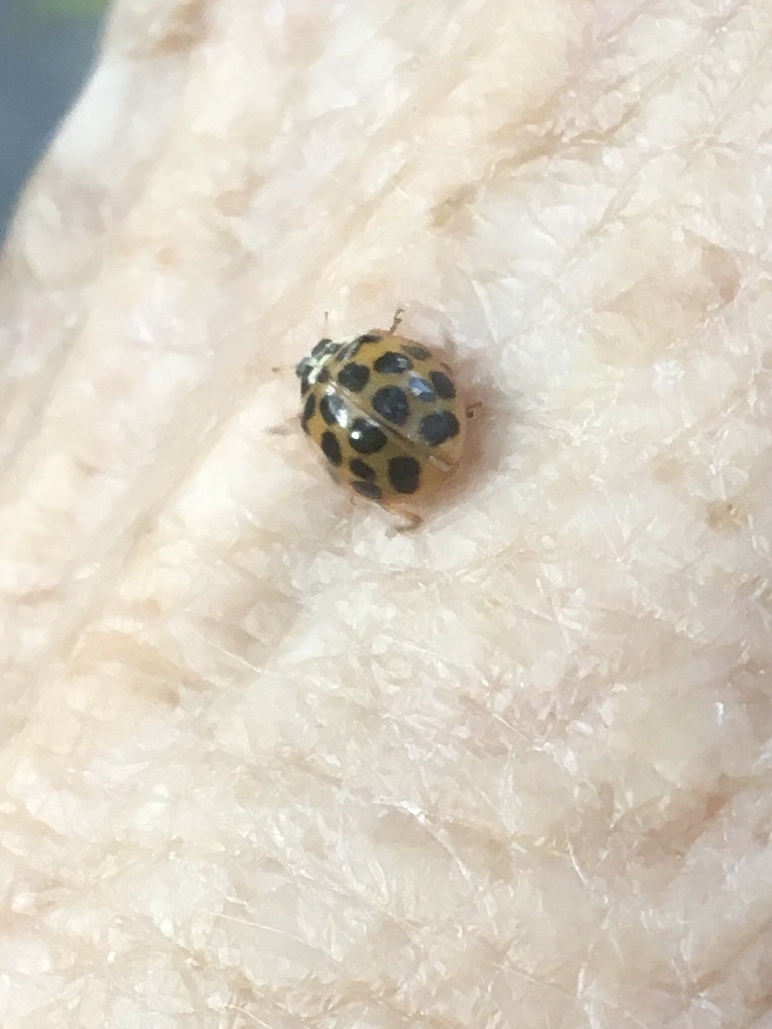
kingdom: Animalia
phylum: Arthropoda
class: Insecta
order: Coleoptera
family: Coccinellidae
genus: Harmonia
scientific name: Harmonia axyridis
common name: Harlequin ladybird
